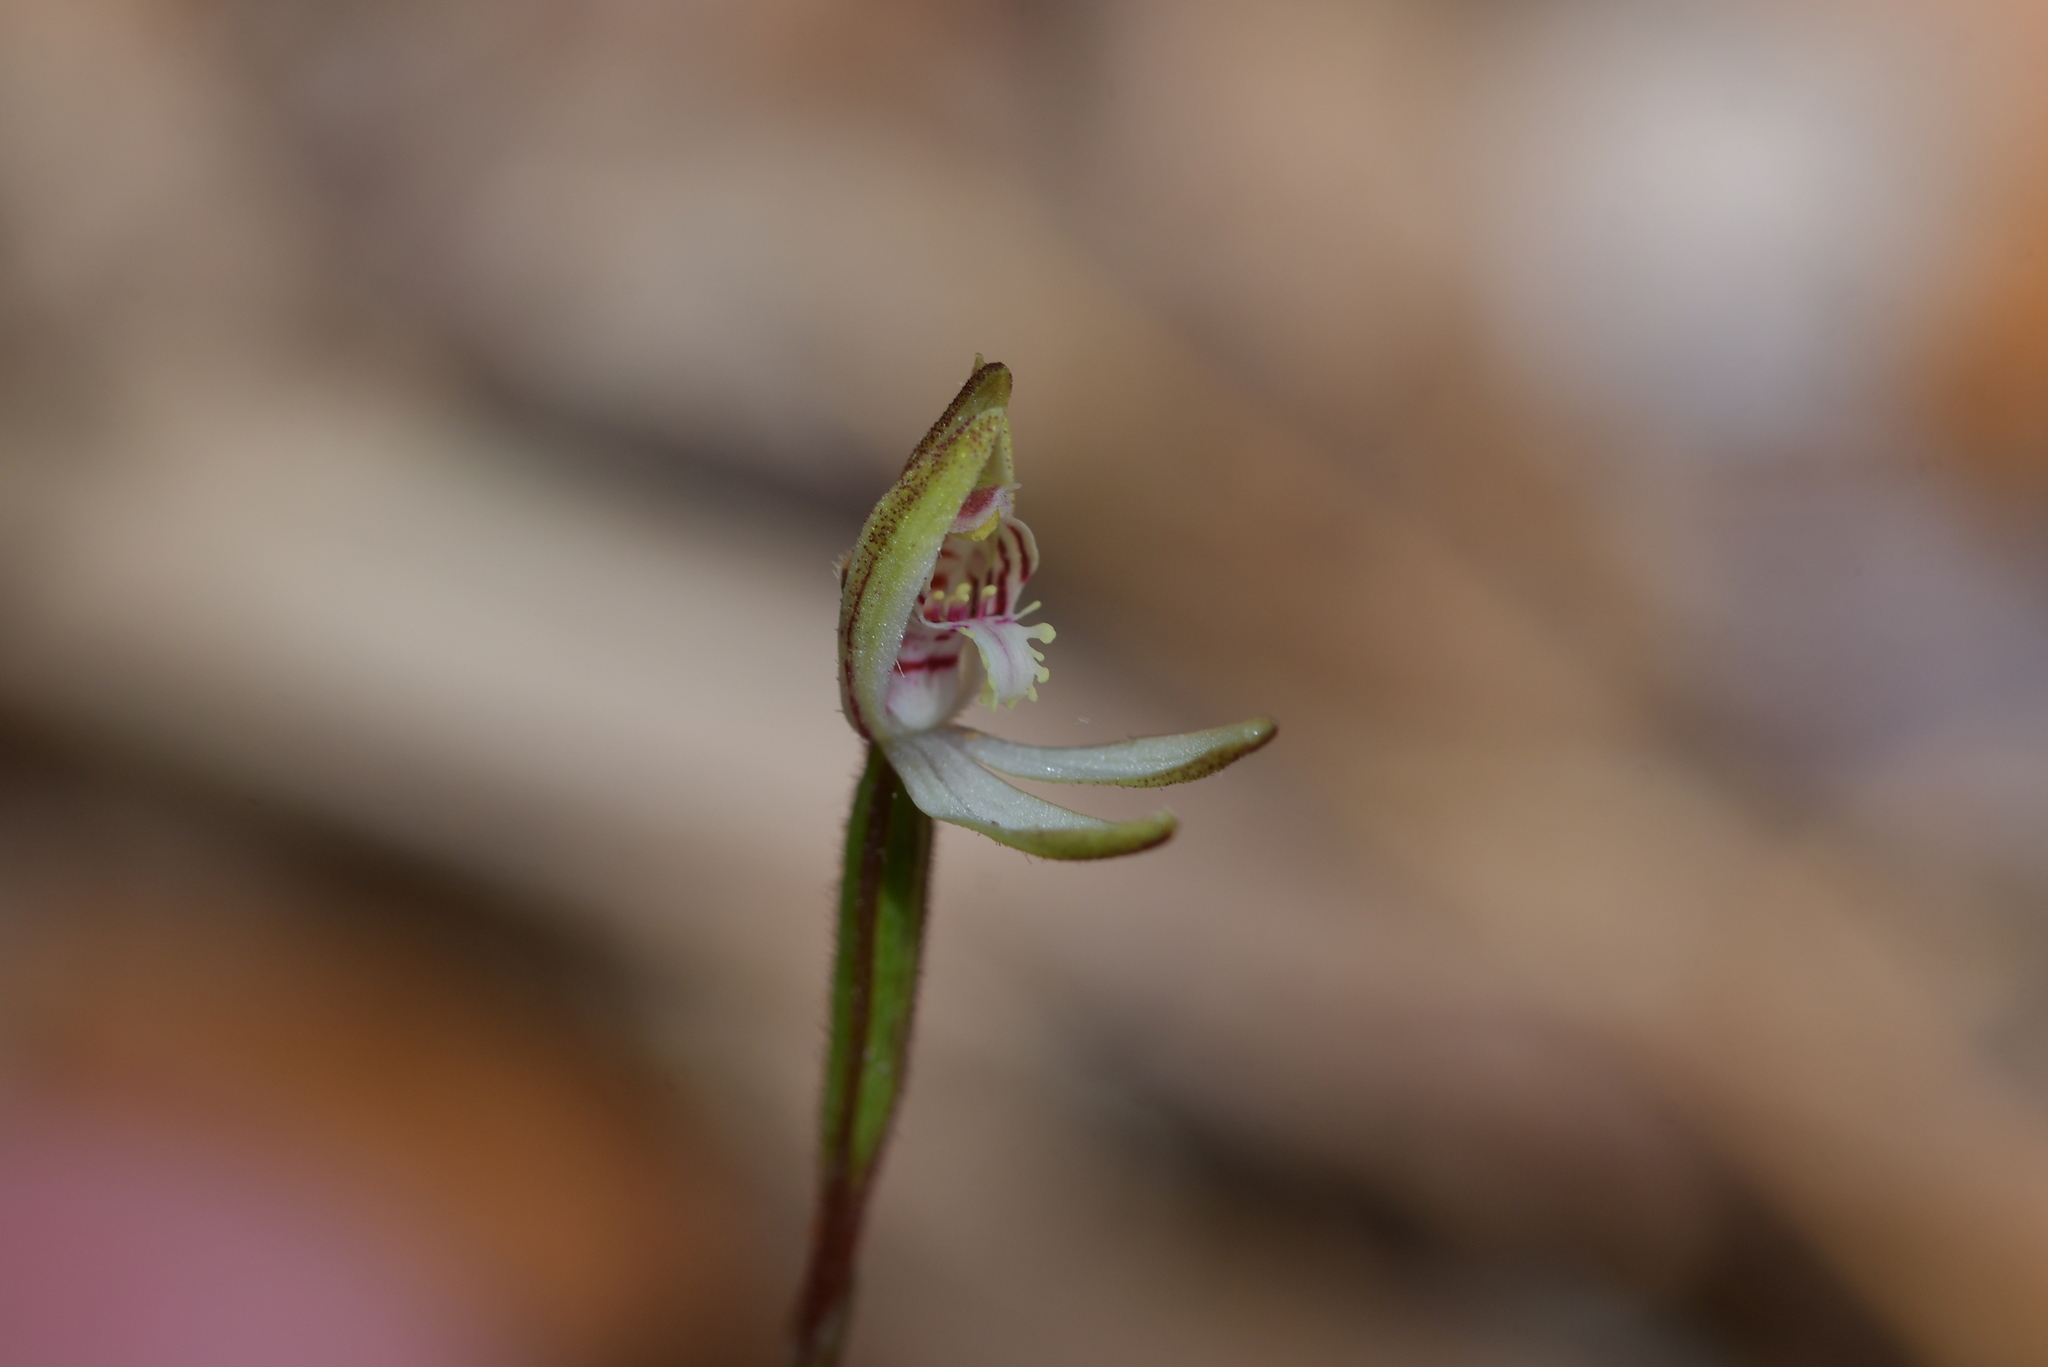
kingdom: Plantae
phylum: Tracheophyta
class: Liliopsida
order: Asparagales
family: Orchidaceae
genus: Caladenia
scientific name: Caladenia chlorostyla
